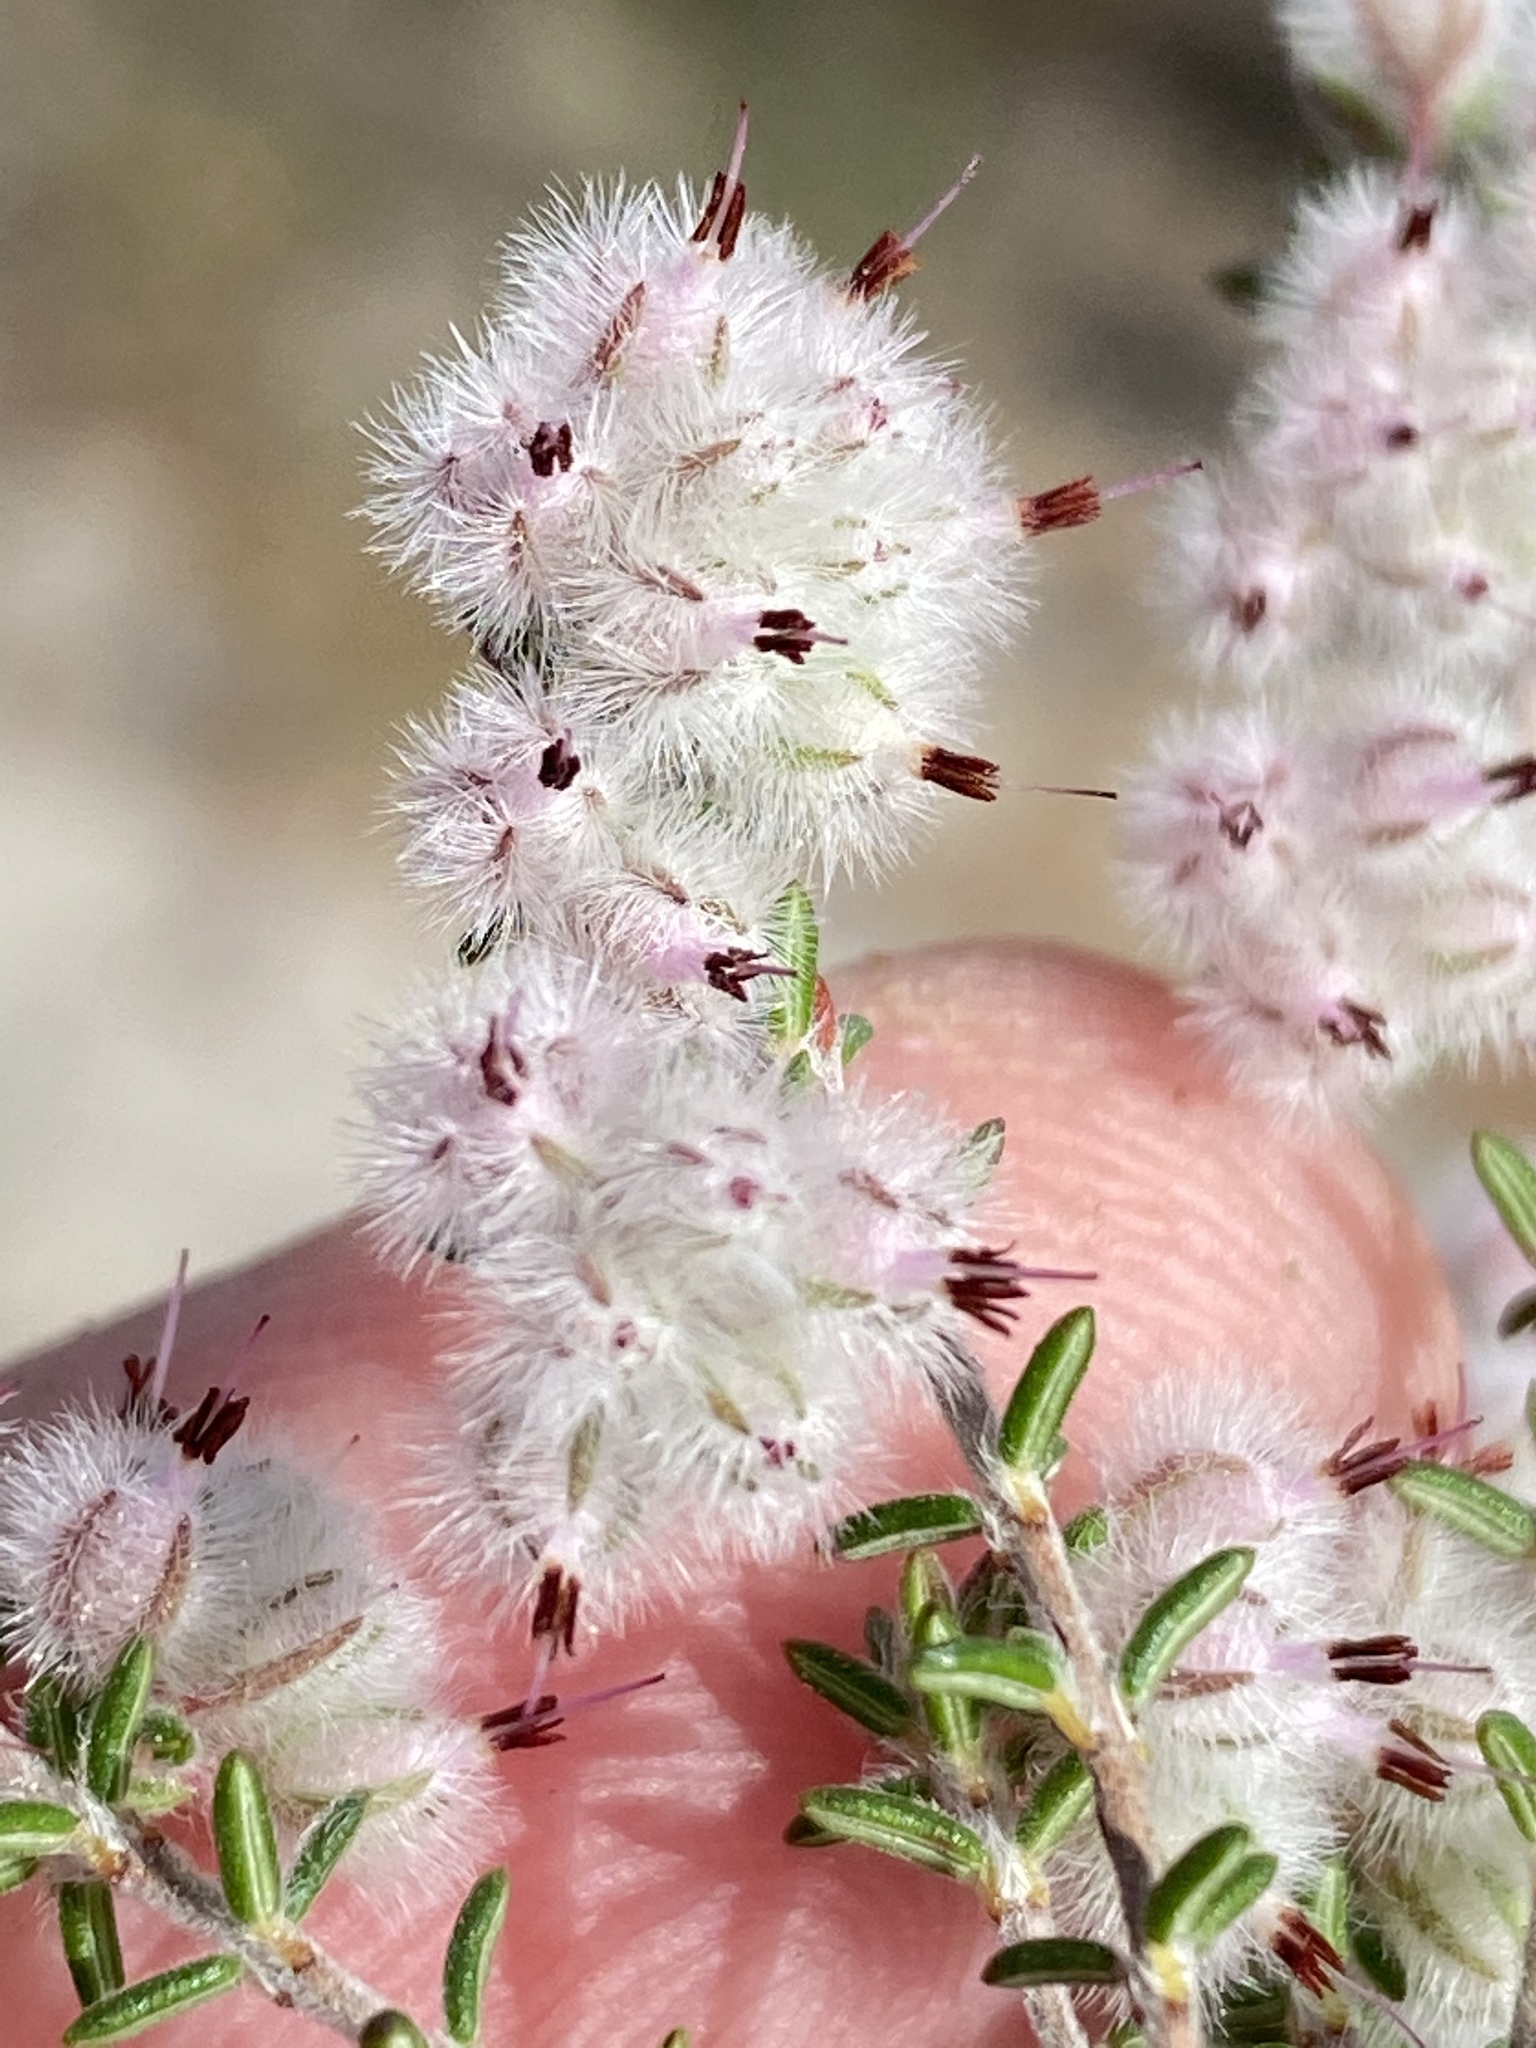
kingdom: Plantae
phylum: Tracheophyta
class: Magnoliopsida
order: Ericales
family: Ericaceae
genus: Erica
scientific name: Erica pilosiflora
